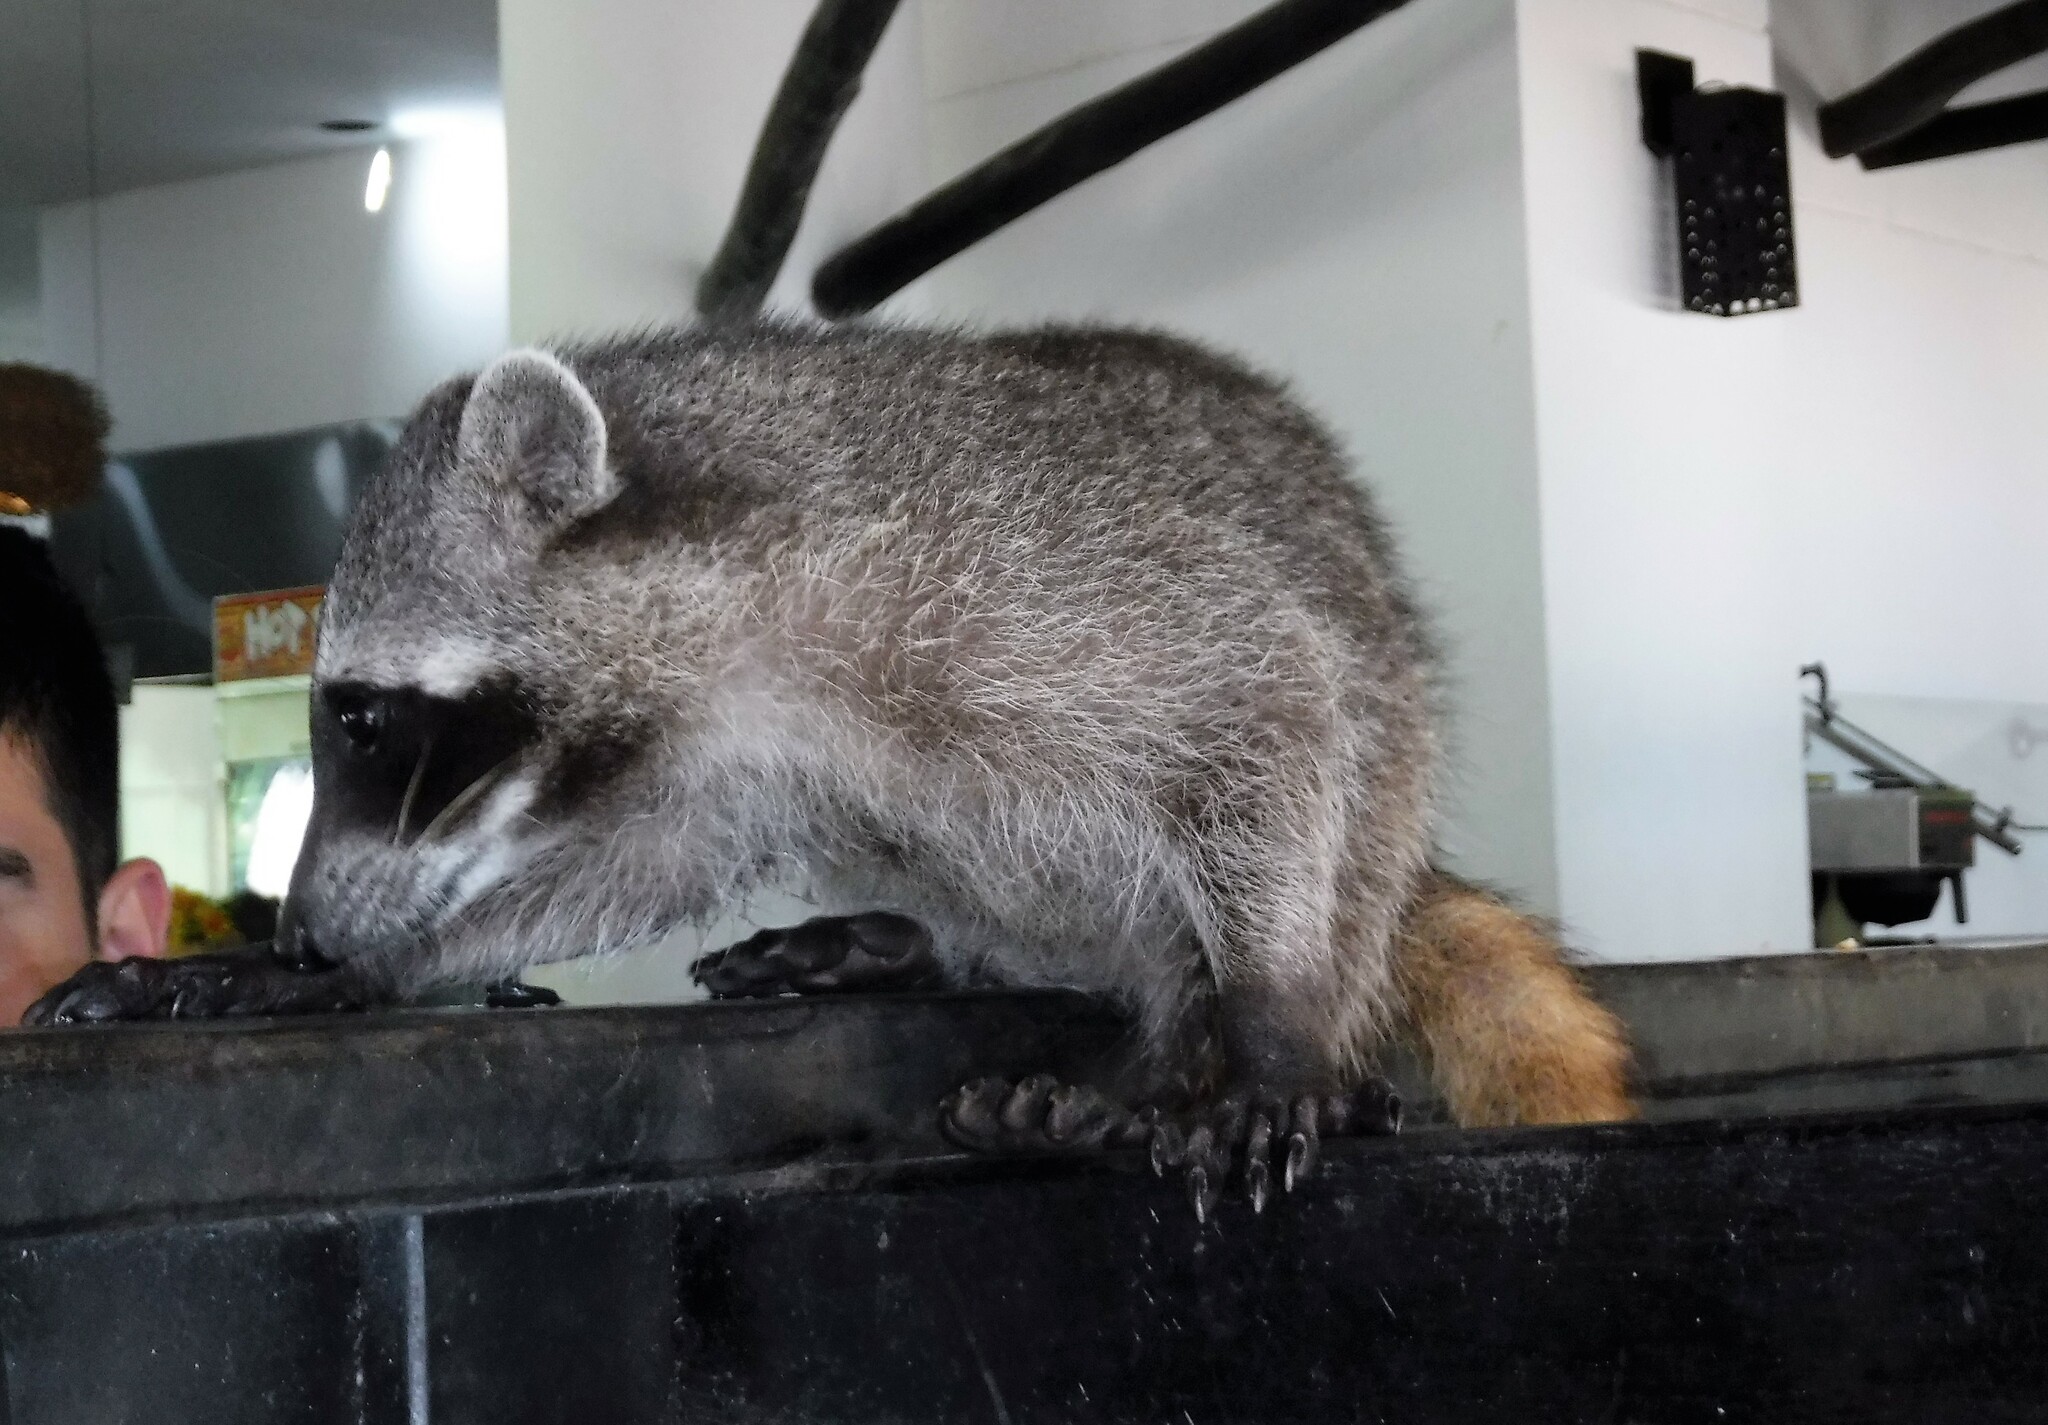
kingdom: Animalia
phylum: Chordata
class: Mammalia
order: Carnivora
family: Procyonidae
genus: Procyon
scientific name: Procyon lotor
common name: Raccoon
